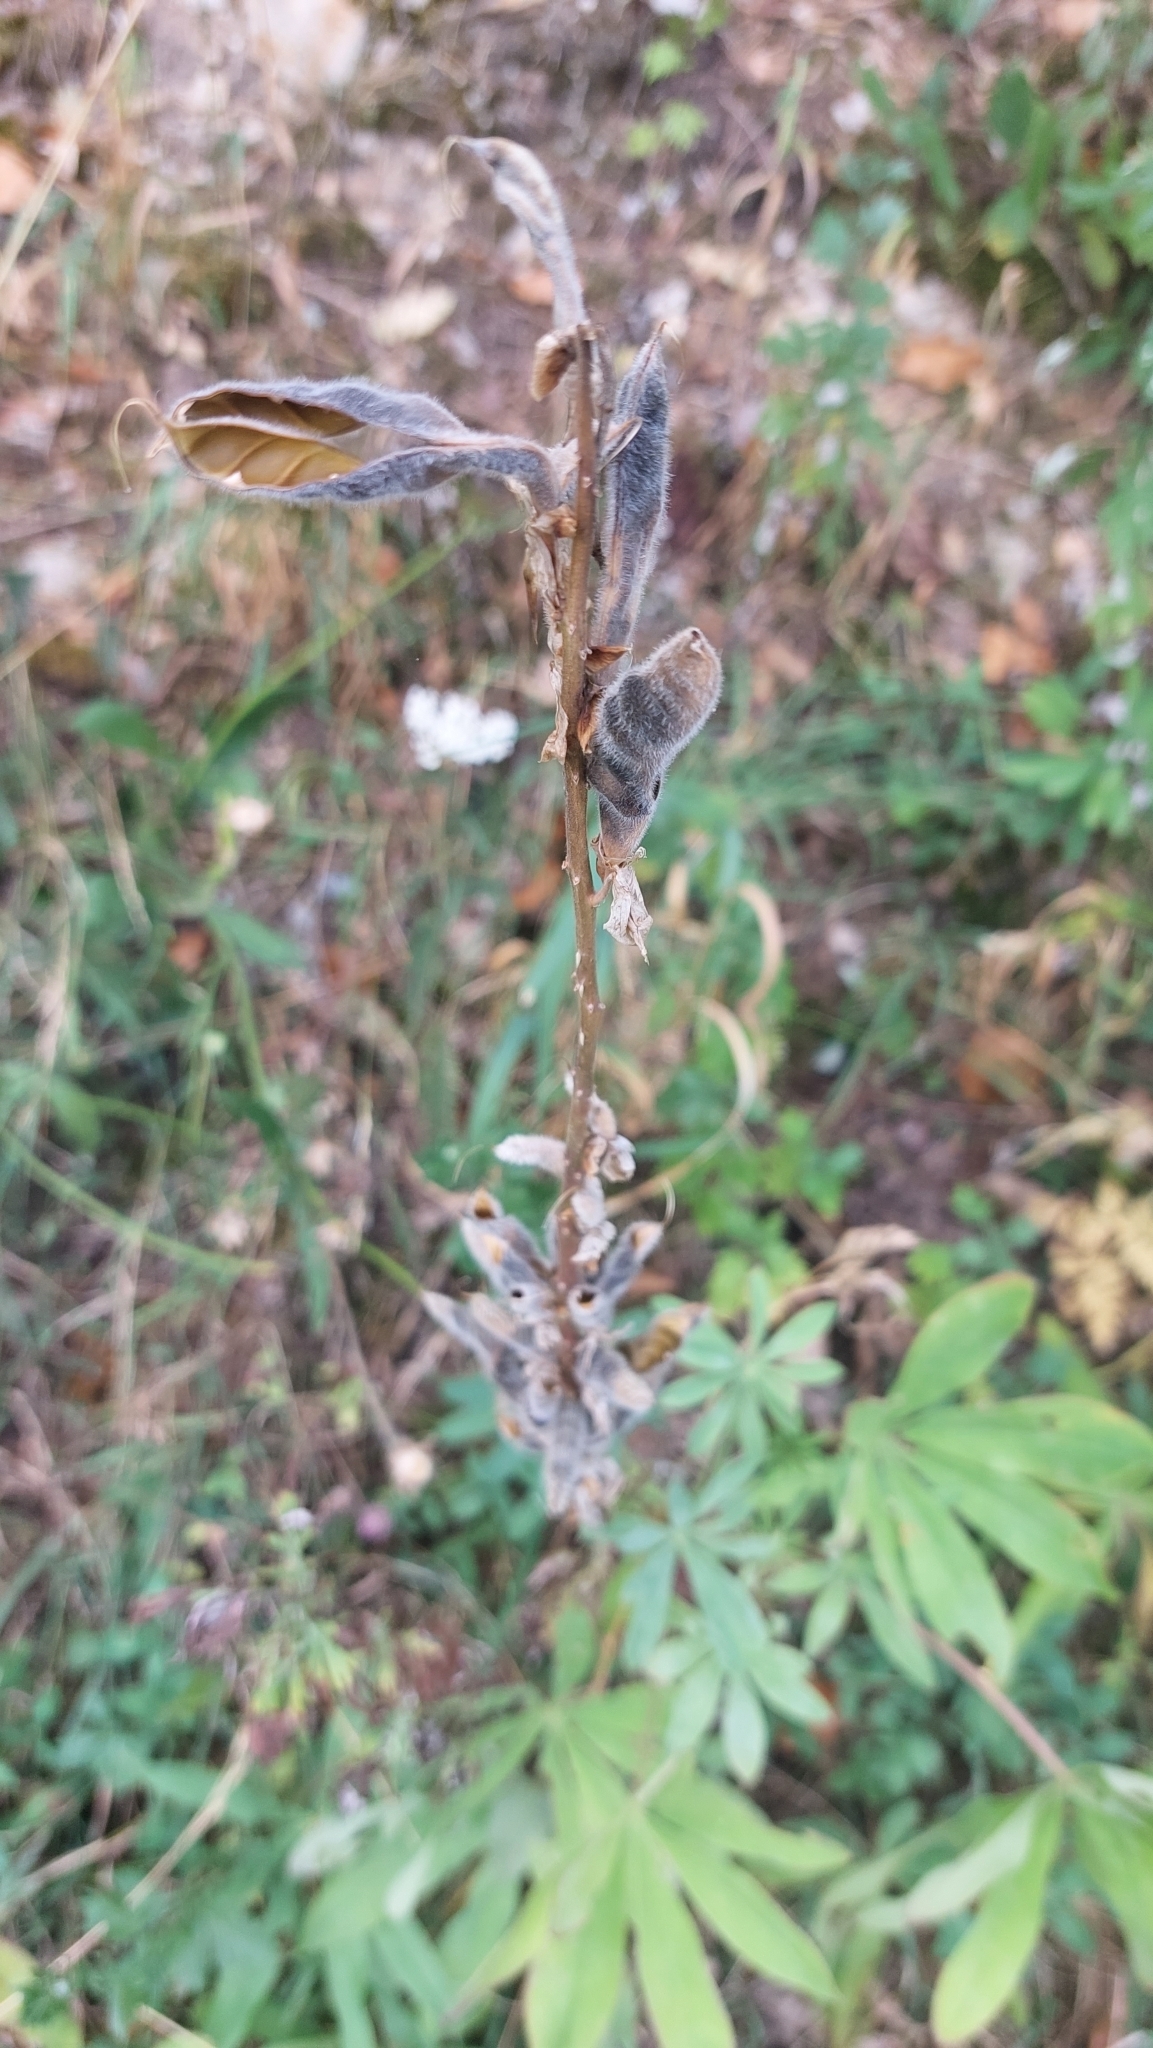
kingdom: Plantae
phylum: Tracheophyta
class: Magnoliopsida
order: Fabales
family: Fabaceae
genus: Lupinus
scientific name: Lupinus polyphyllus
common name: Garden lupin
